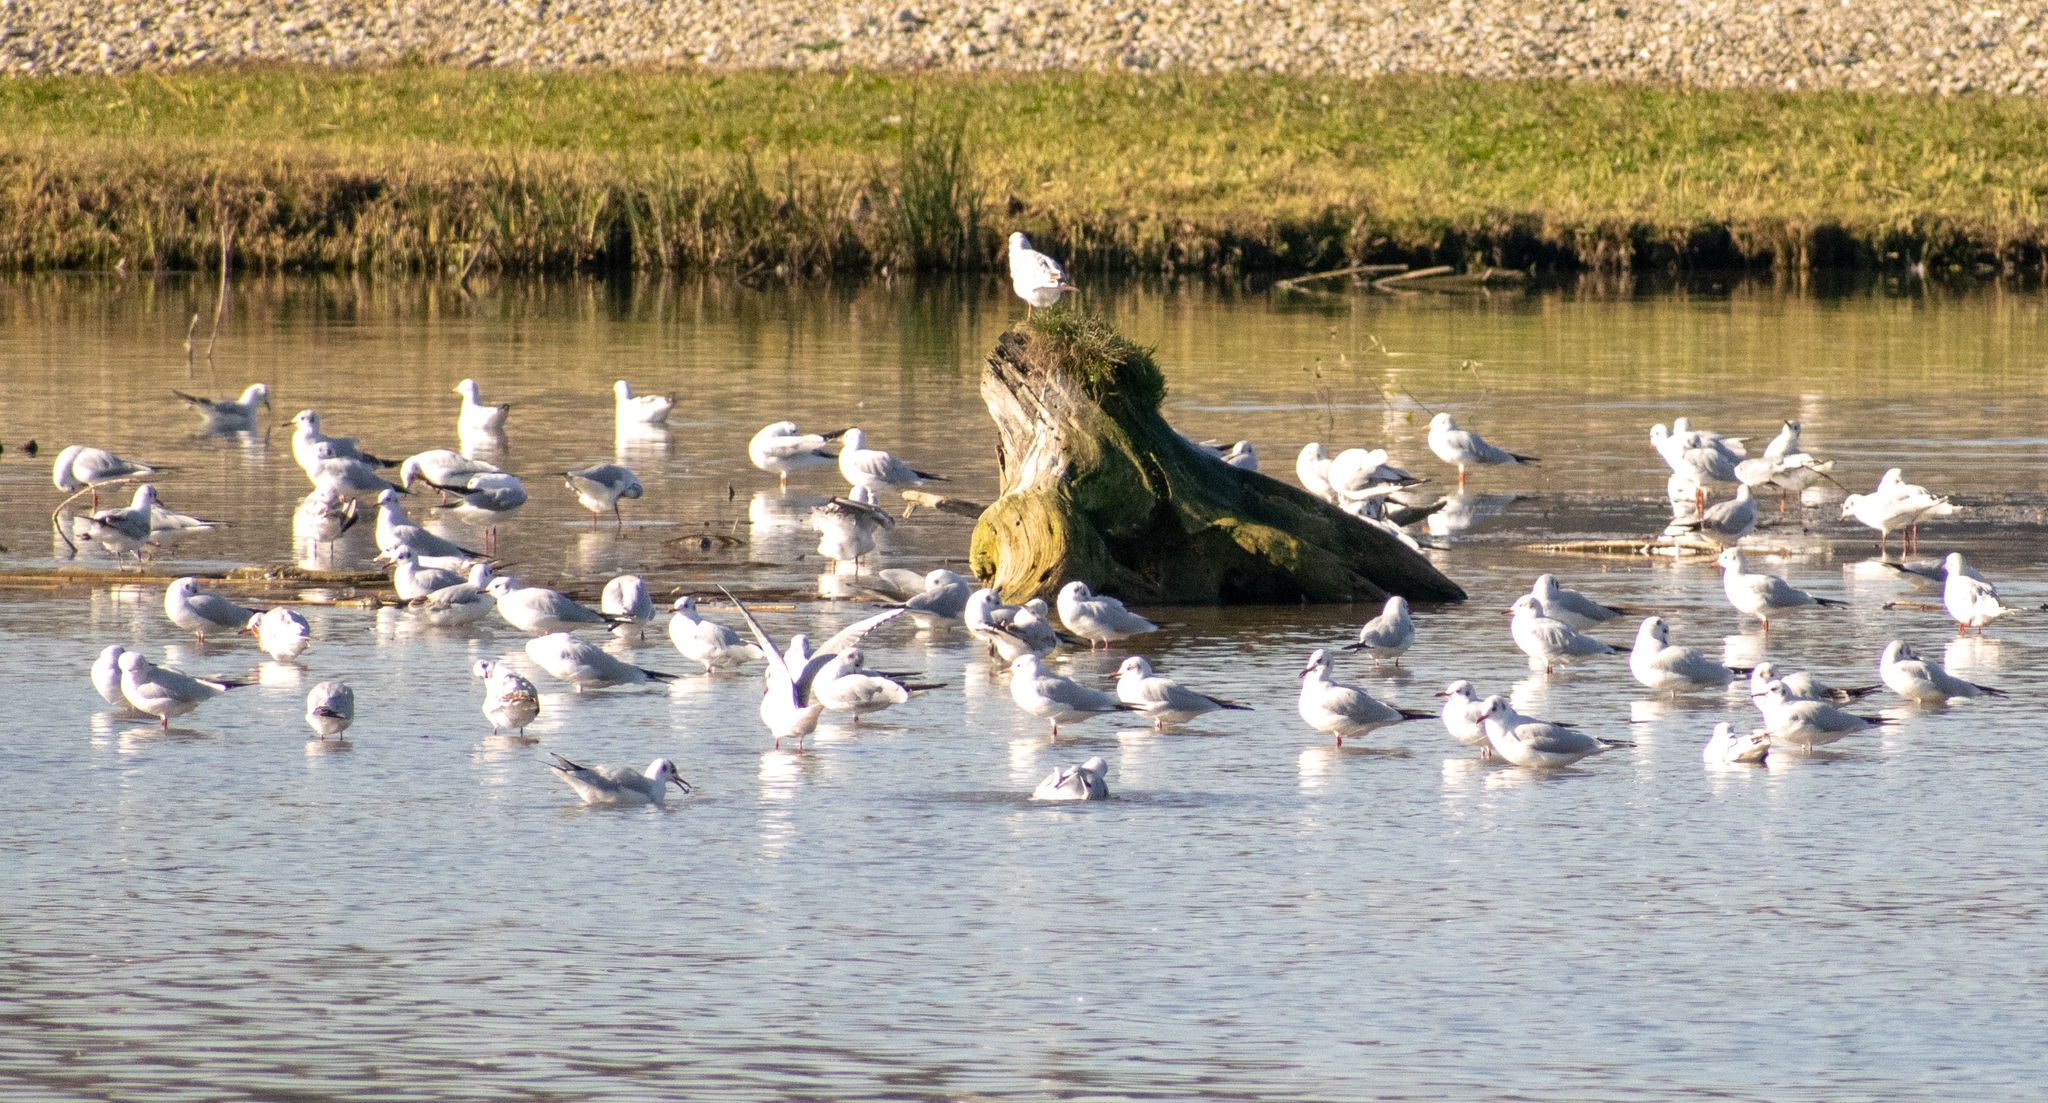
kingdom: Animalia
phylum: Chordata
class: Aves
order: Charadriiformes
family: Laridae
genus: Chroicocephalus
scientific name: Chroicocephalus ridibundus
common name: Black-headed gull
